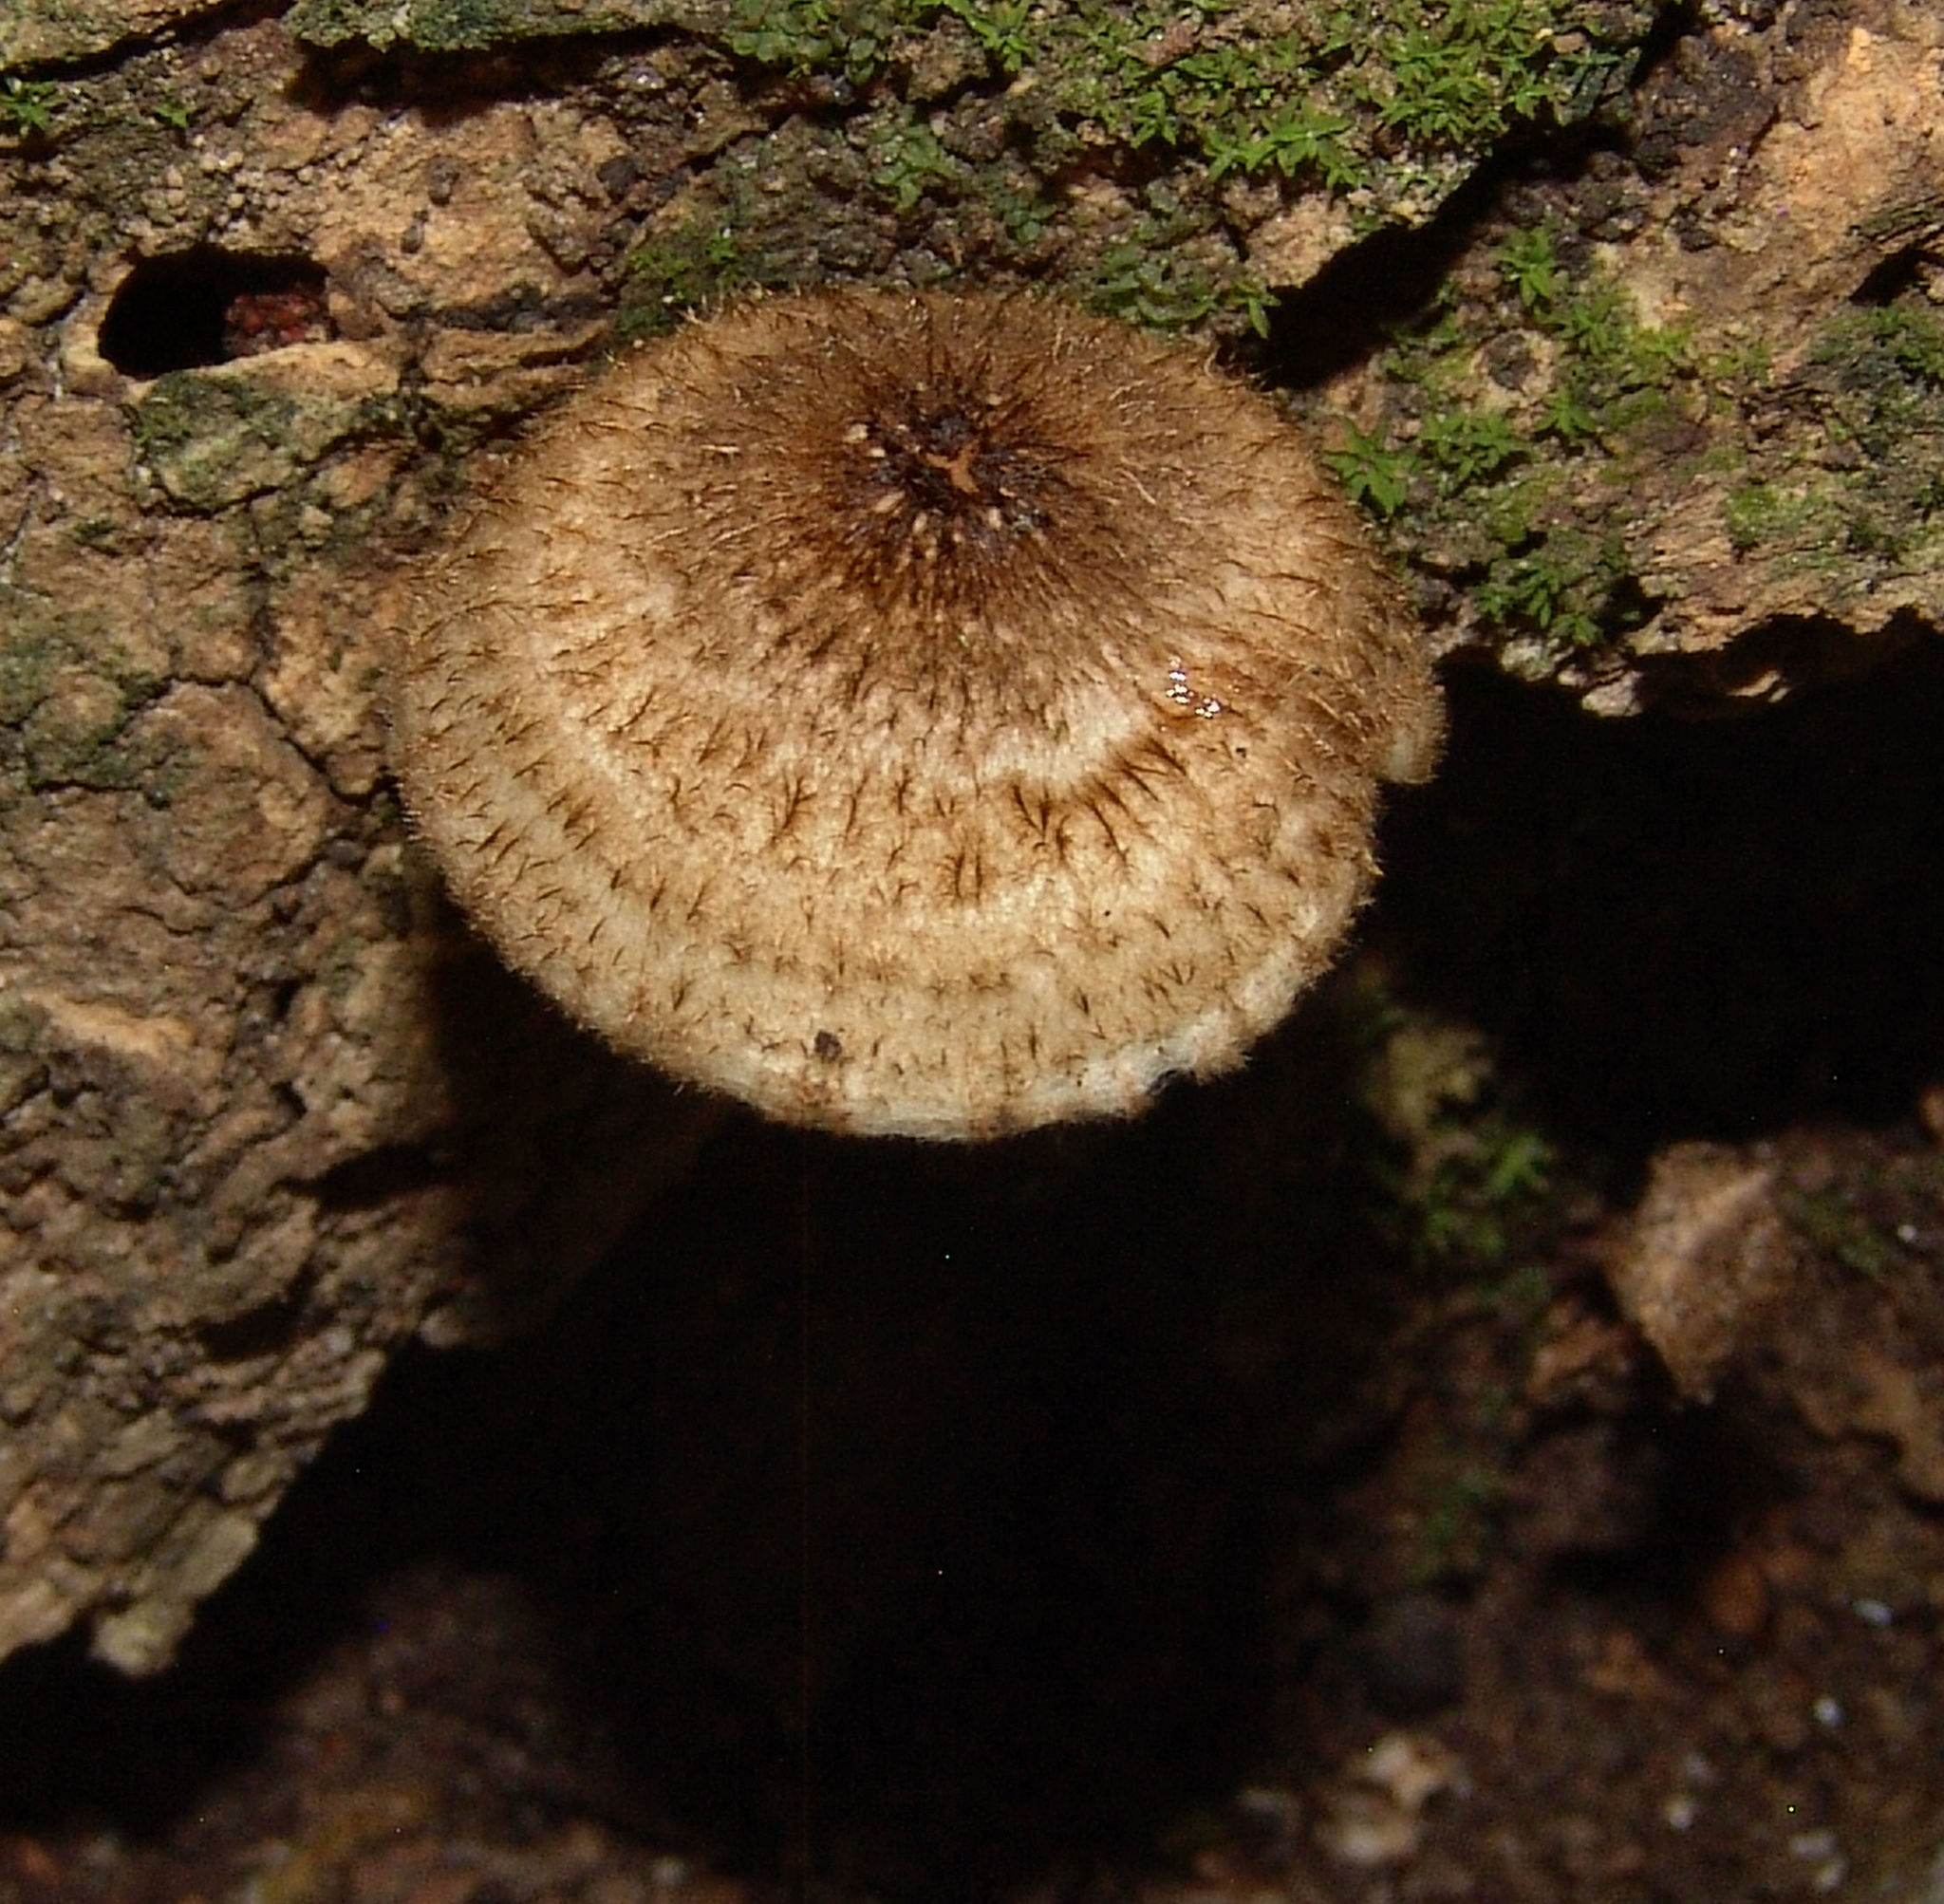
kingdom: Fungi
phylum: Basidiomycota
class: Agaricomycetes
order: Agaricales
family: Tricholomataceae
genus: Collybia
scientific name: Collybia zonata
